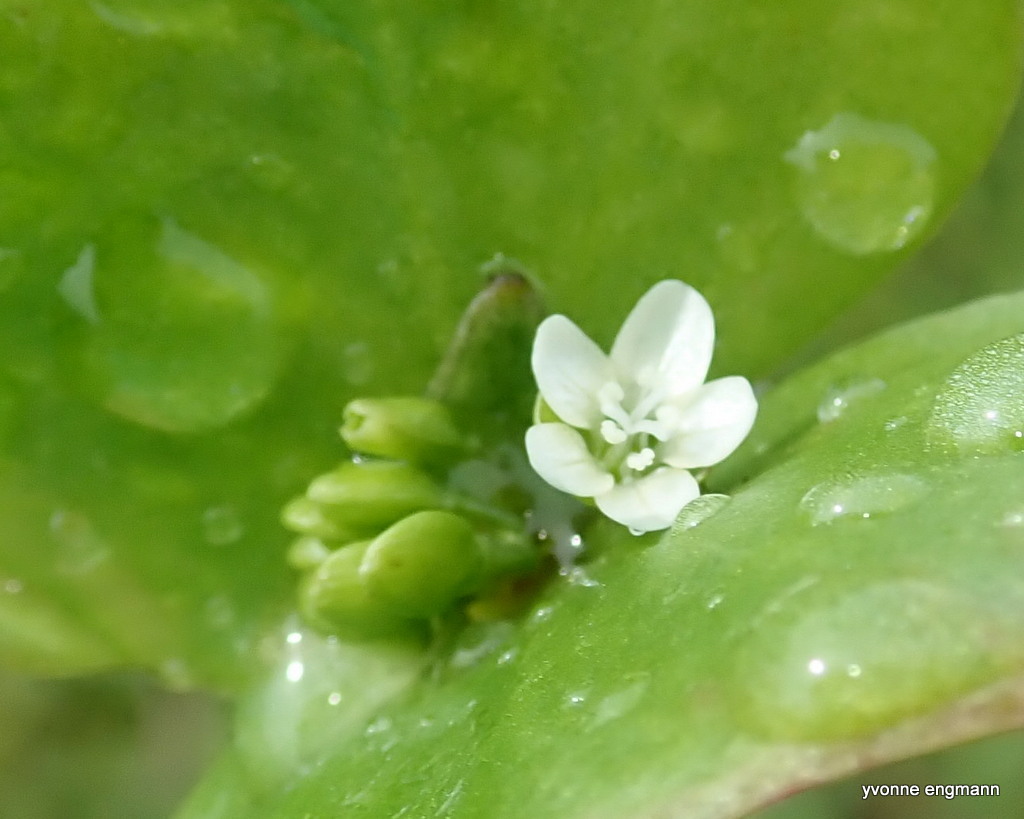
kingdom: Plantae
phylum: Tracheophyta
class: Magnoliopsida
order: Caryophyllales
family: Montiaceae
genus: Claytonia
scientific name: Claytonia perfoliata
